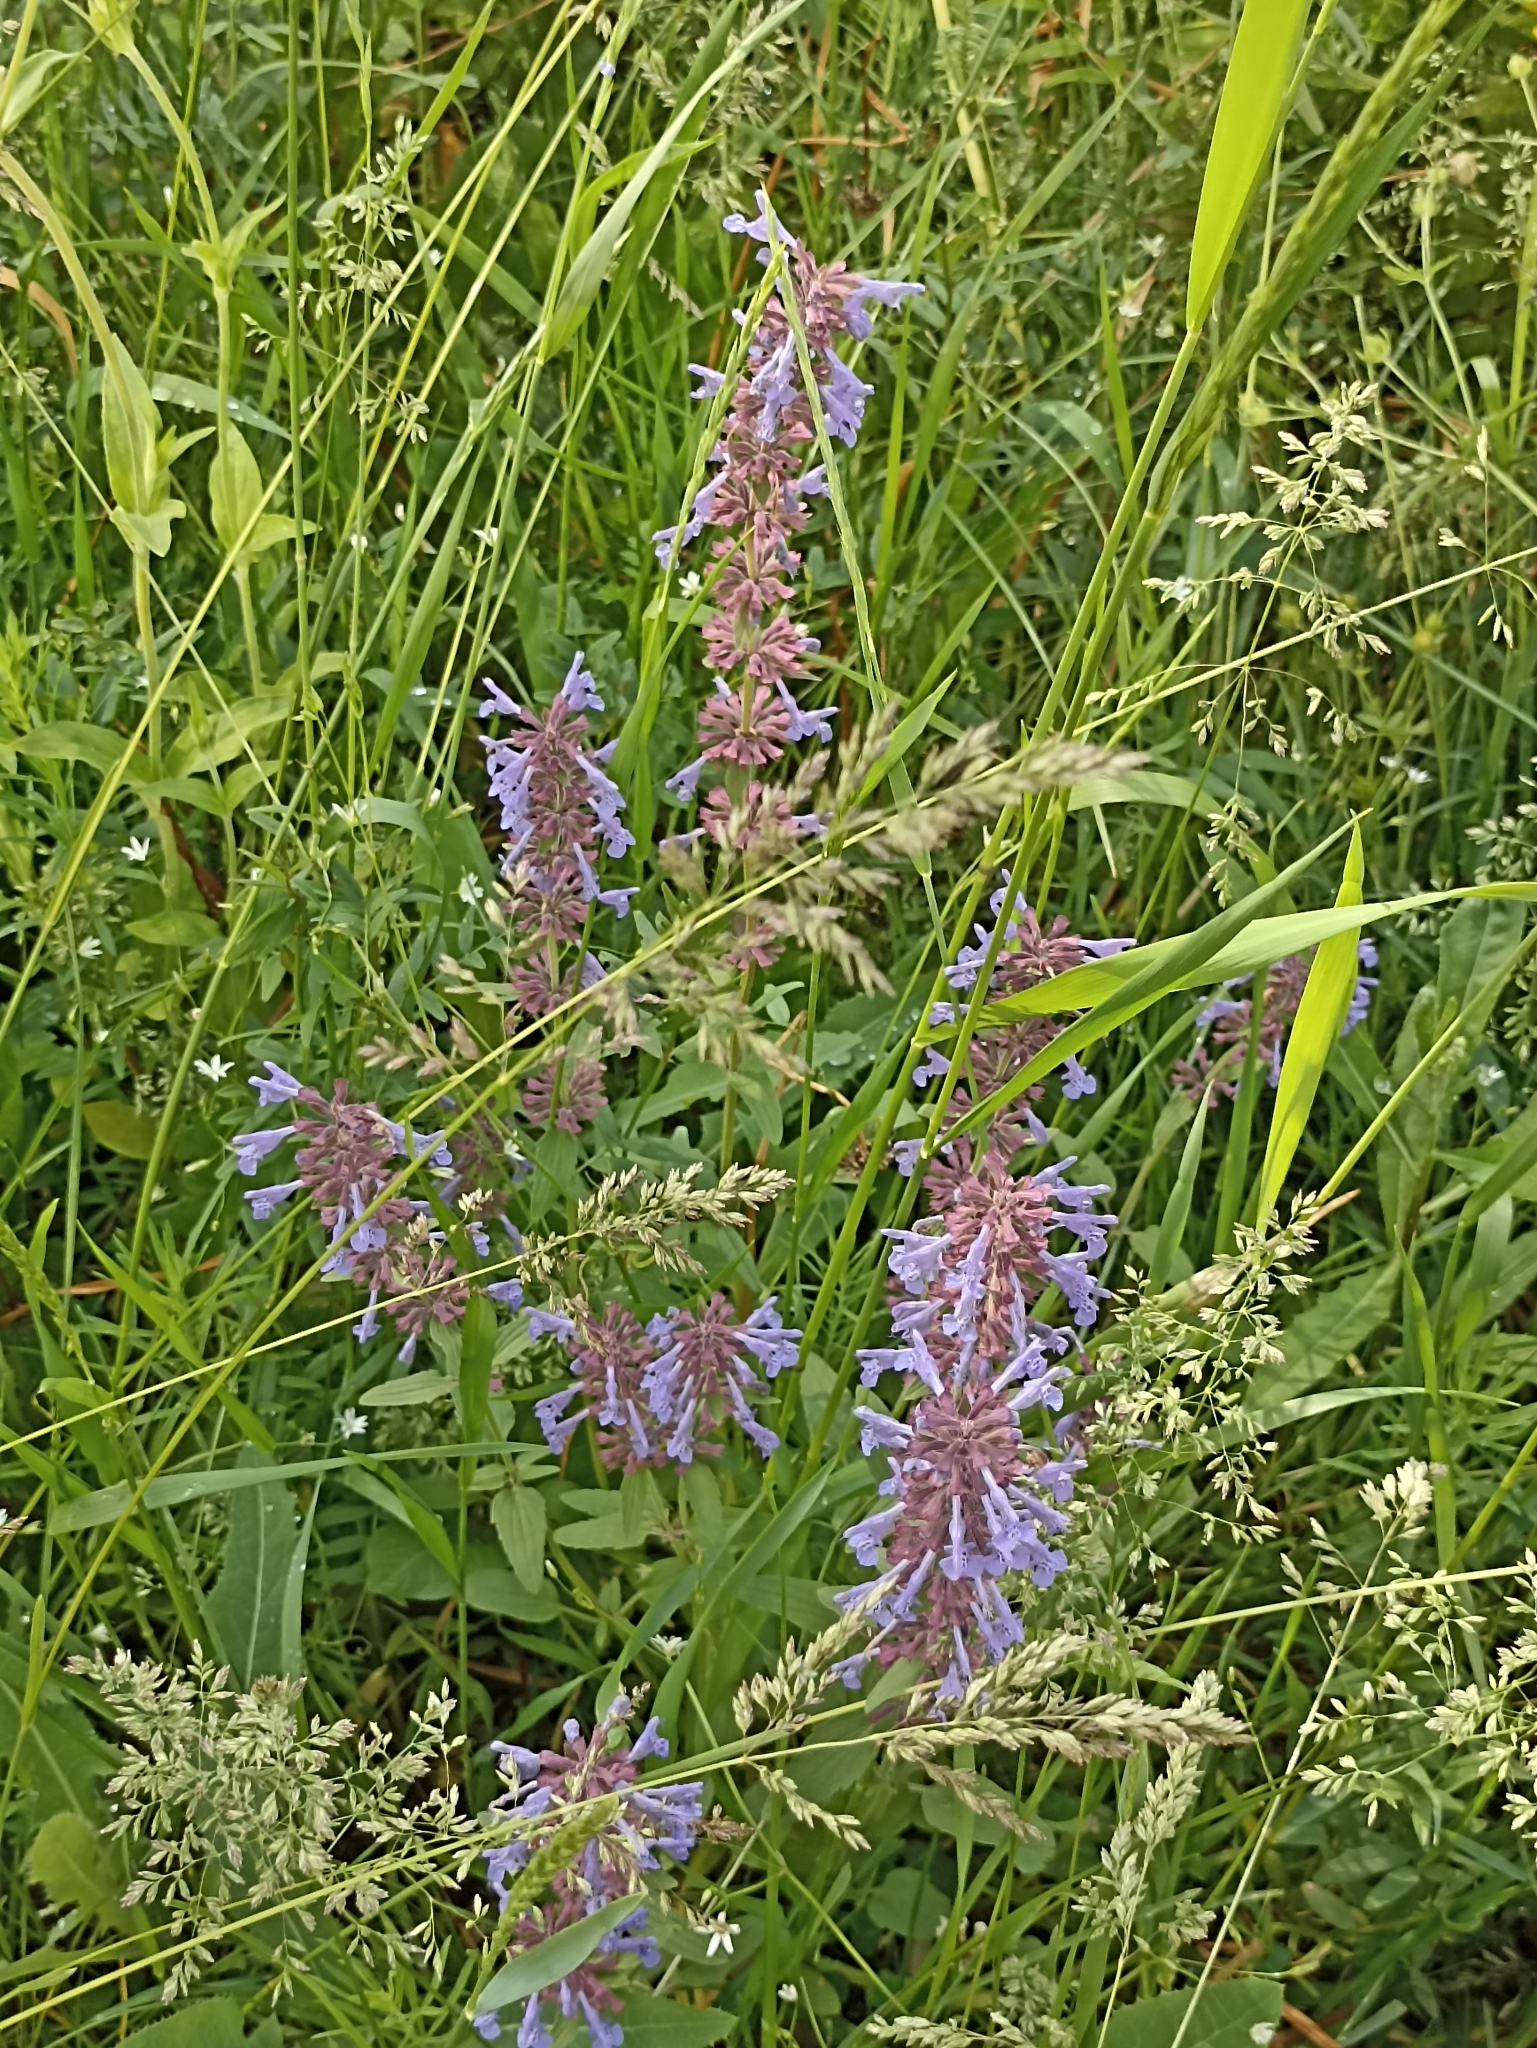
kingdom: Plantae
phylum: Tracheophyta
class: Magnoliopsida
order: Lamiales
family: Lamiaceae
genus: Dracocephalum
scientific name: Dracocephalum nutans
